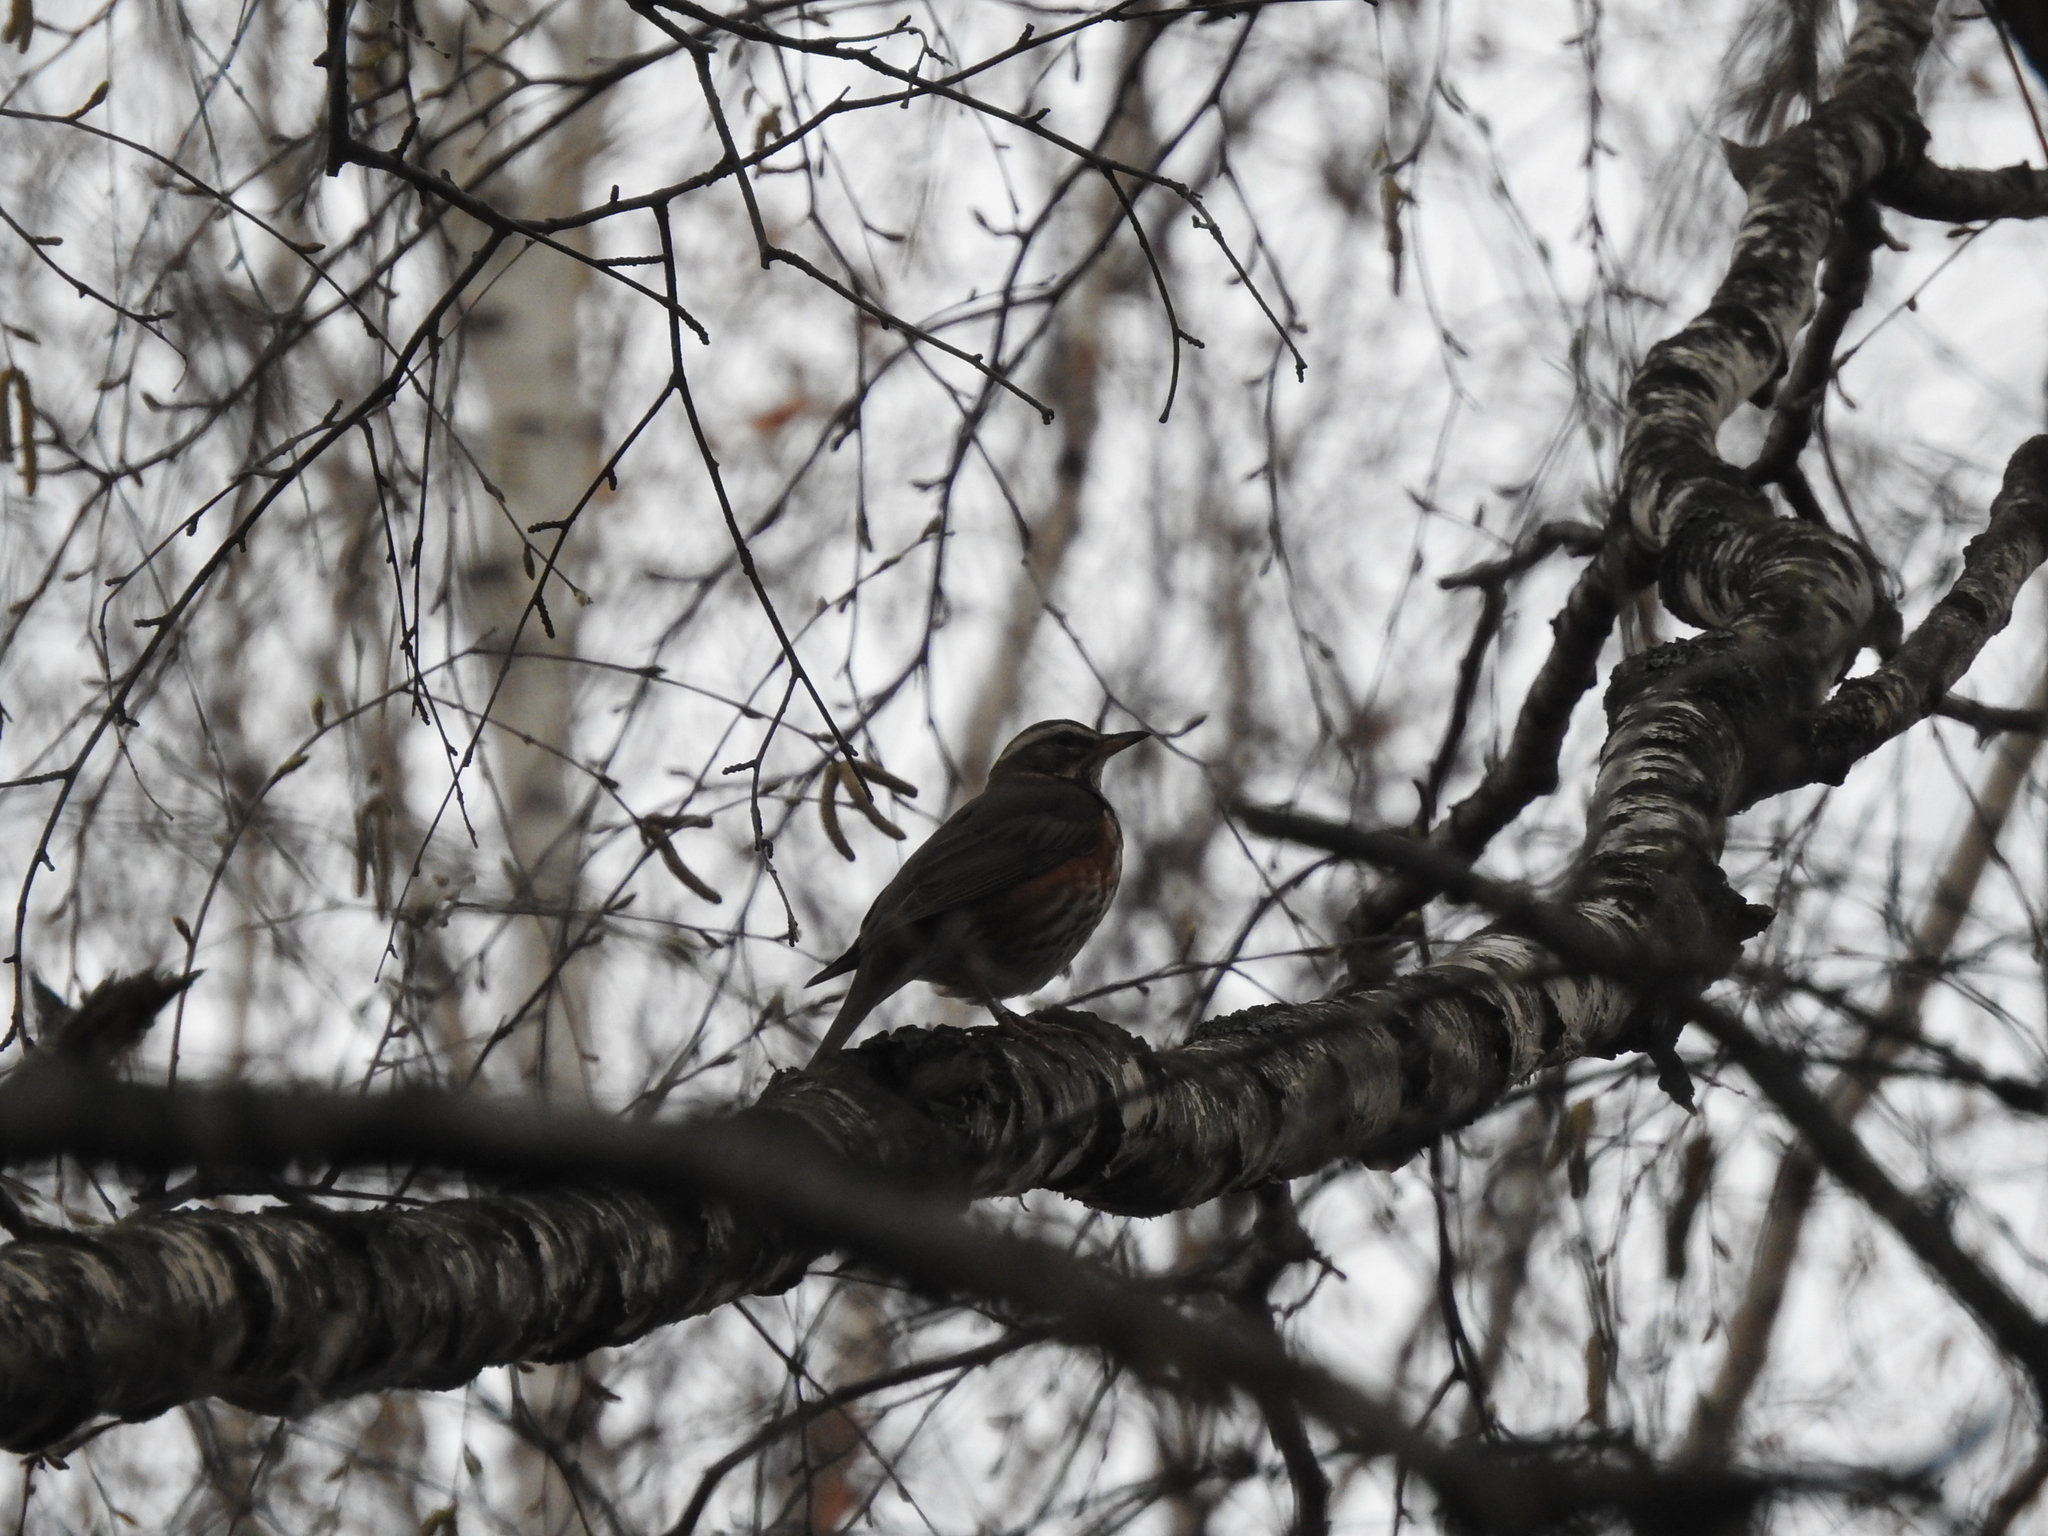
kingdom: Animalia
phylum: Chordata
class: Aves
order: Passeriformes
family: Turdidae
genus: Turdus
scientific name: Turdus iliacus
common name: Redwing
